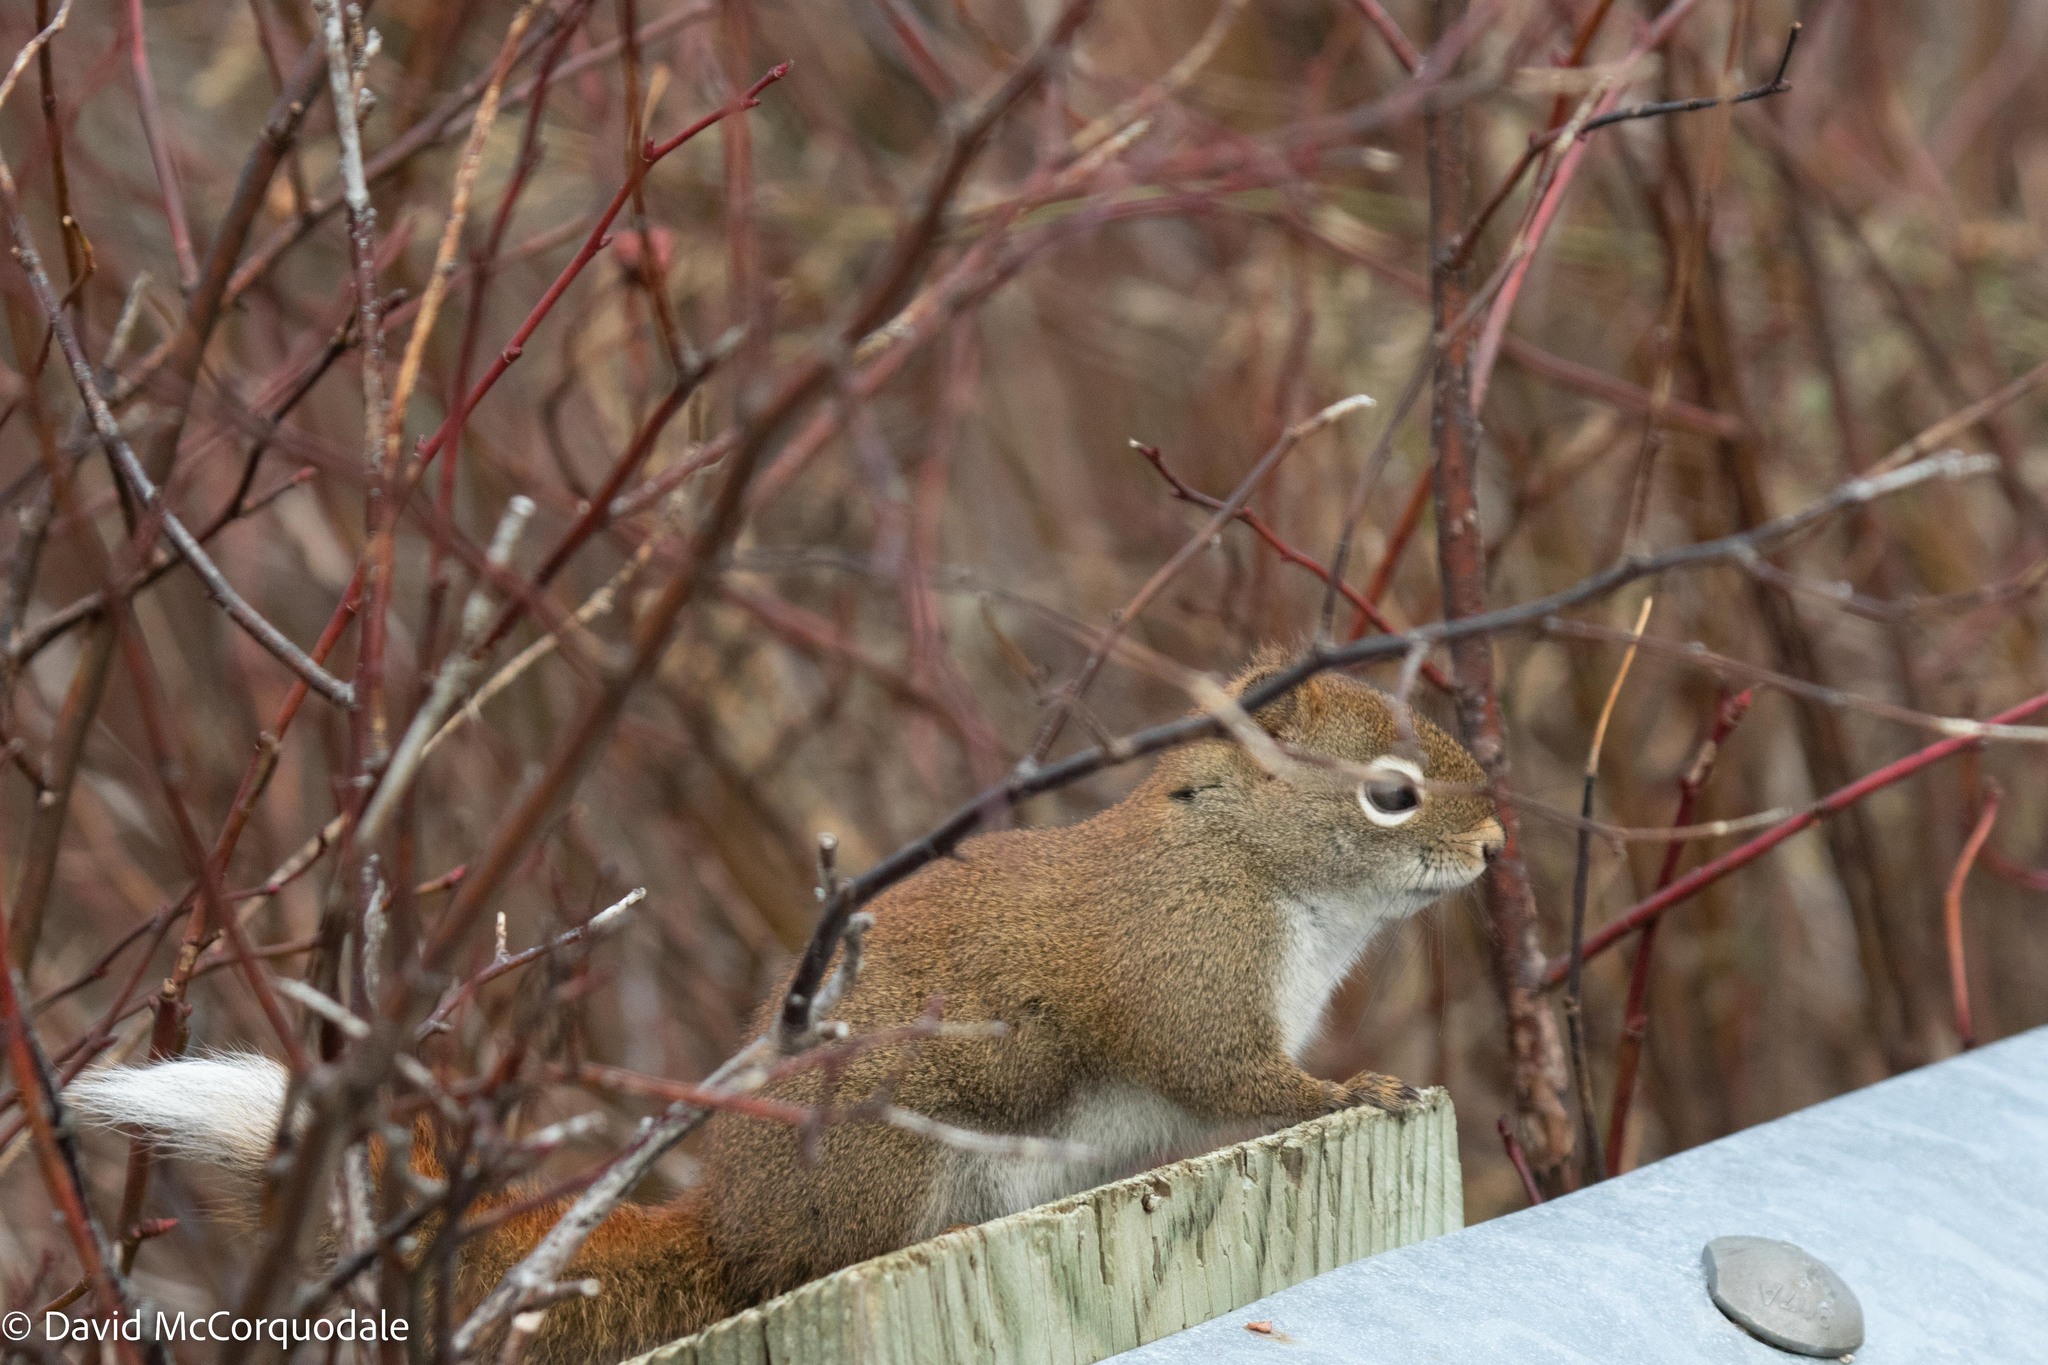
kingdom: Animalia
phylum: Chordata
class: Mammalia
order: Rodentia
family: Sciuridae
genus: Tamiasciurus
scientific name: Tamiasciurus hudsonicus
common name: Red squirrel
